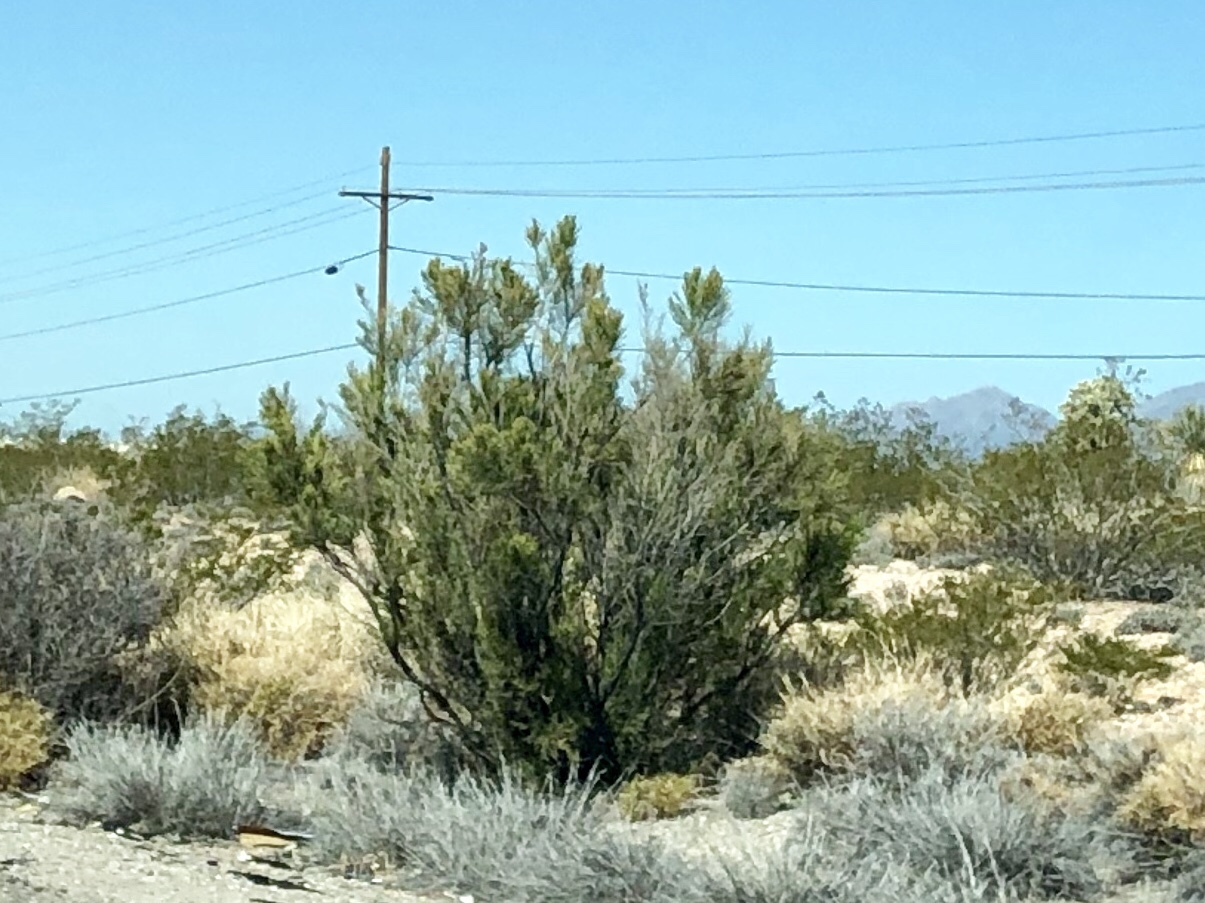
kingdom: Plantae
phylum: Tracheophyta
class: Magnoliopsida
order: Zygophyllales
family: Zygophyllaceae
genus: Larrea
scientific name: Larrea tridentata
